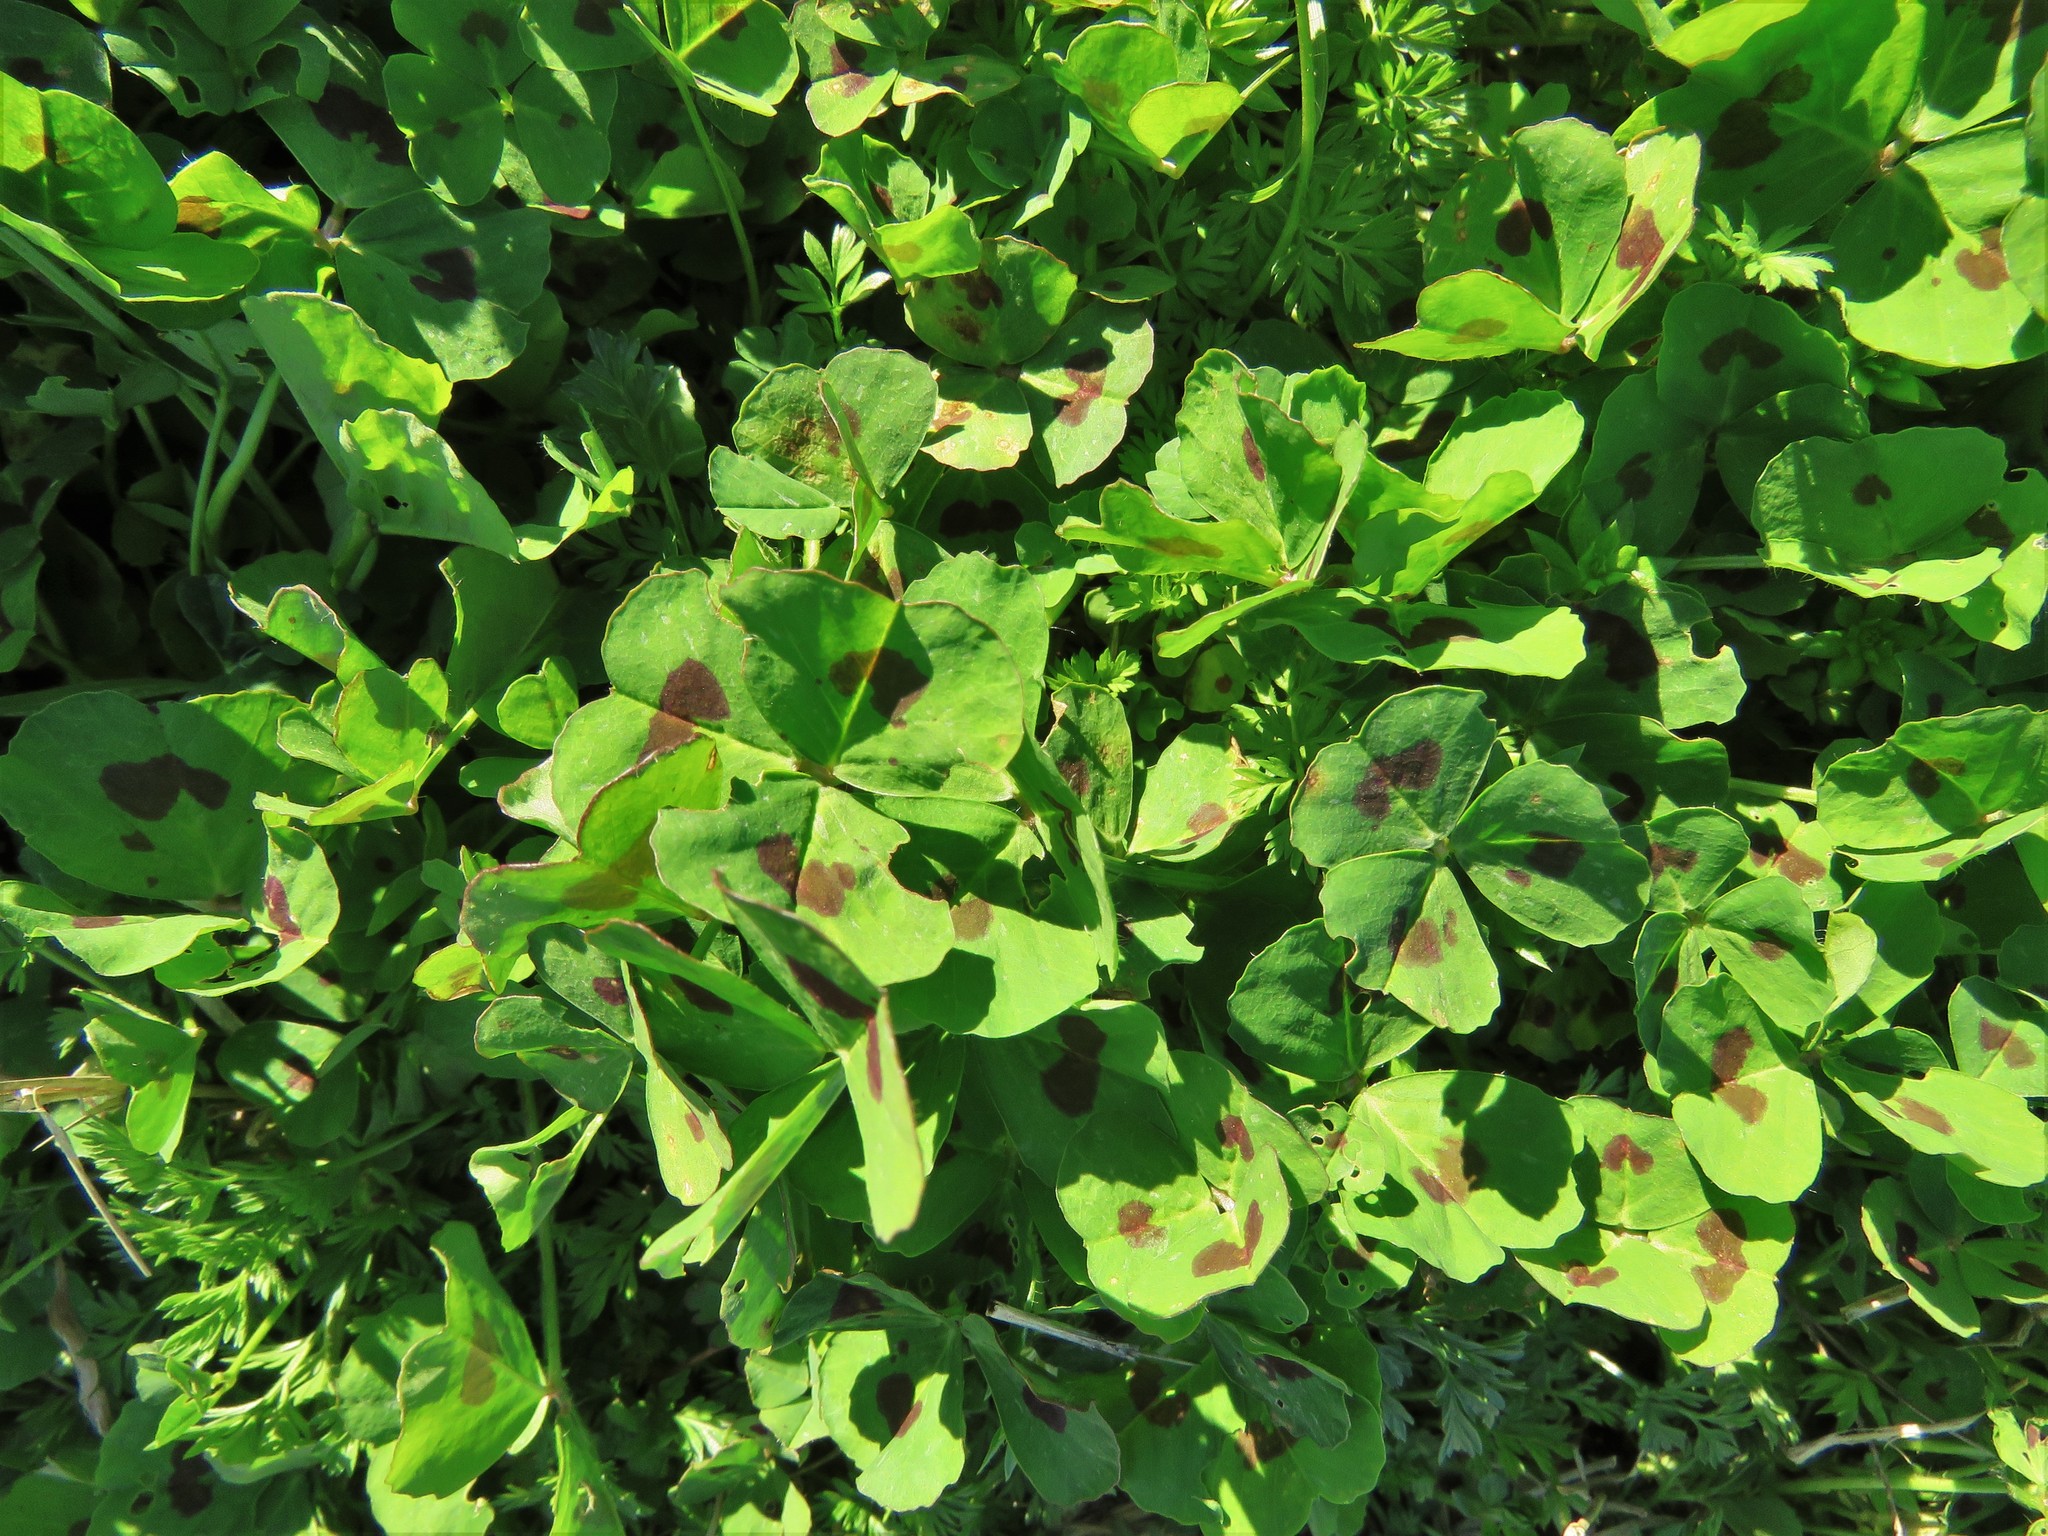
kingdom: Plantae
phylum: Tracheophyta
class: Magnoliopsida
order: Fabales
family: Fabaceae
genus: Medicago
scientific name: Medicago arabica
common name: Spotted medick
